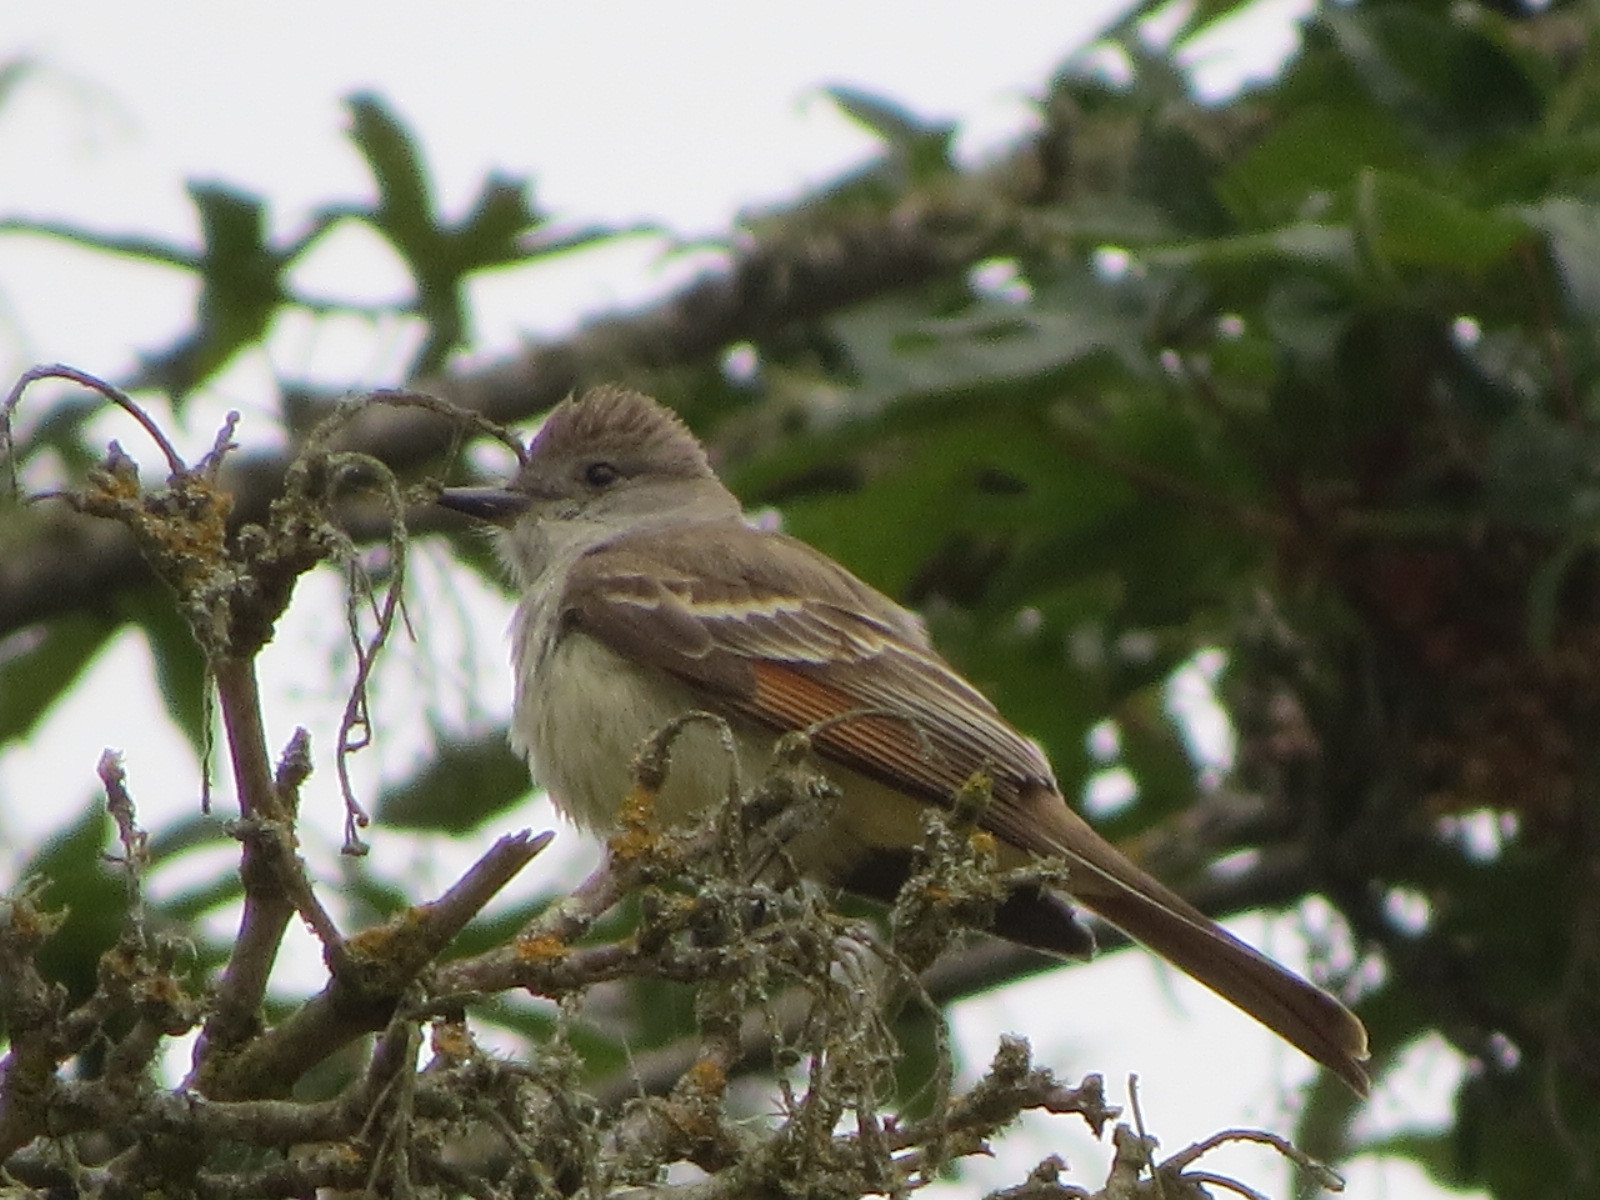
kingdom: Animalia
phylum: Chordata
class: Aves
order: Passeriformes
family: Tyrannidae
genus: Myiarchus
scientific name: Myiarchus cinerascens
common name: Ash-throated flycatcher
